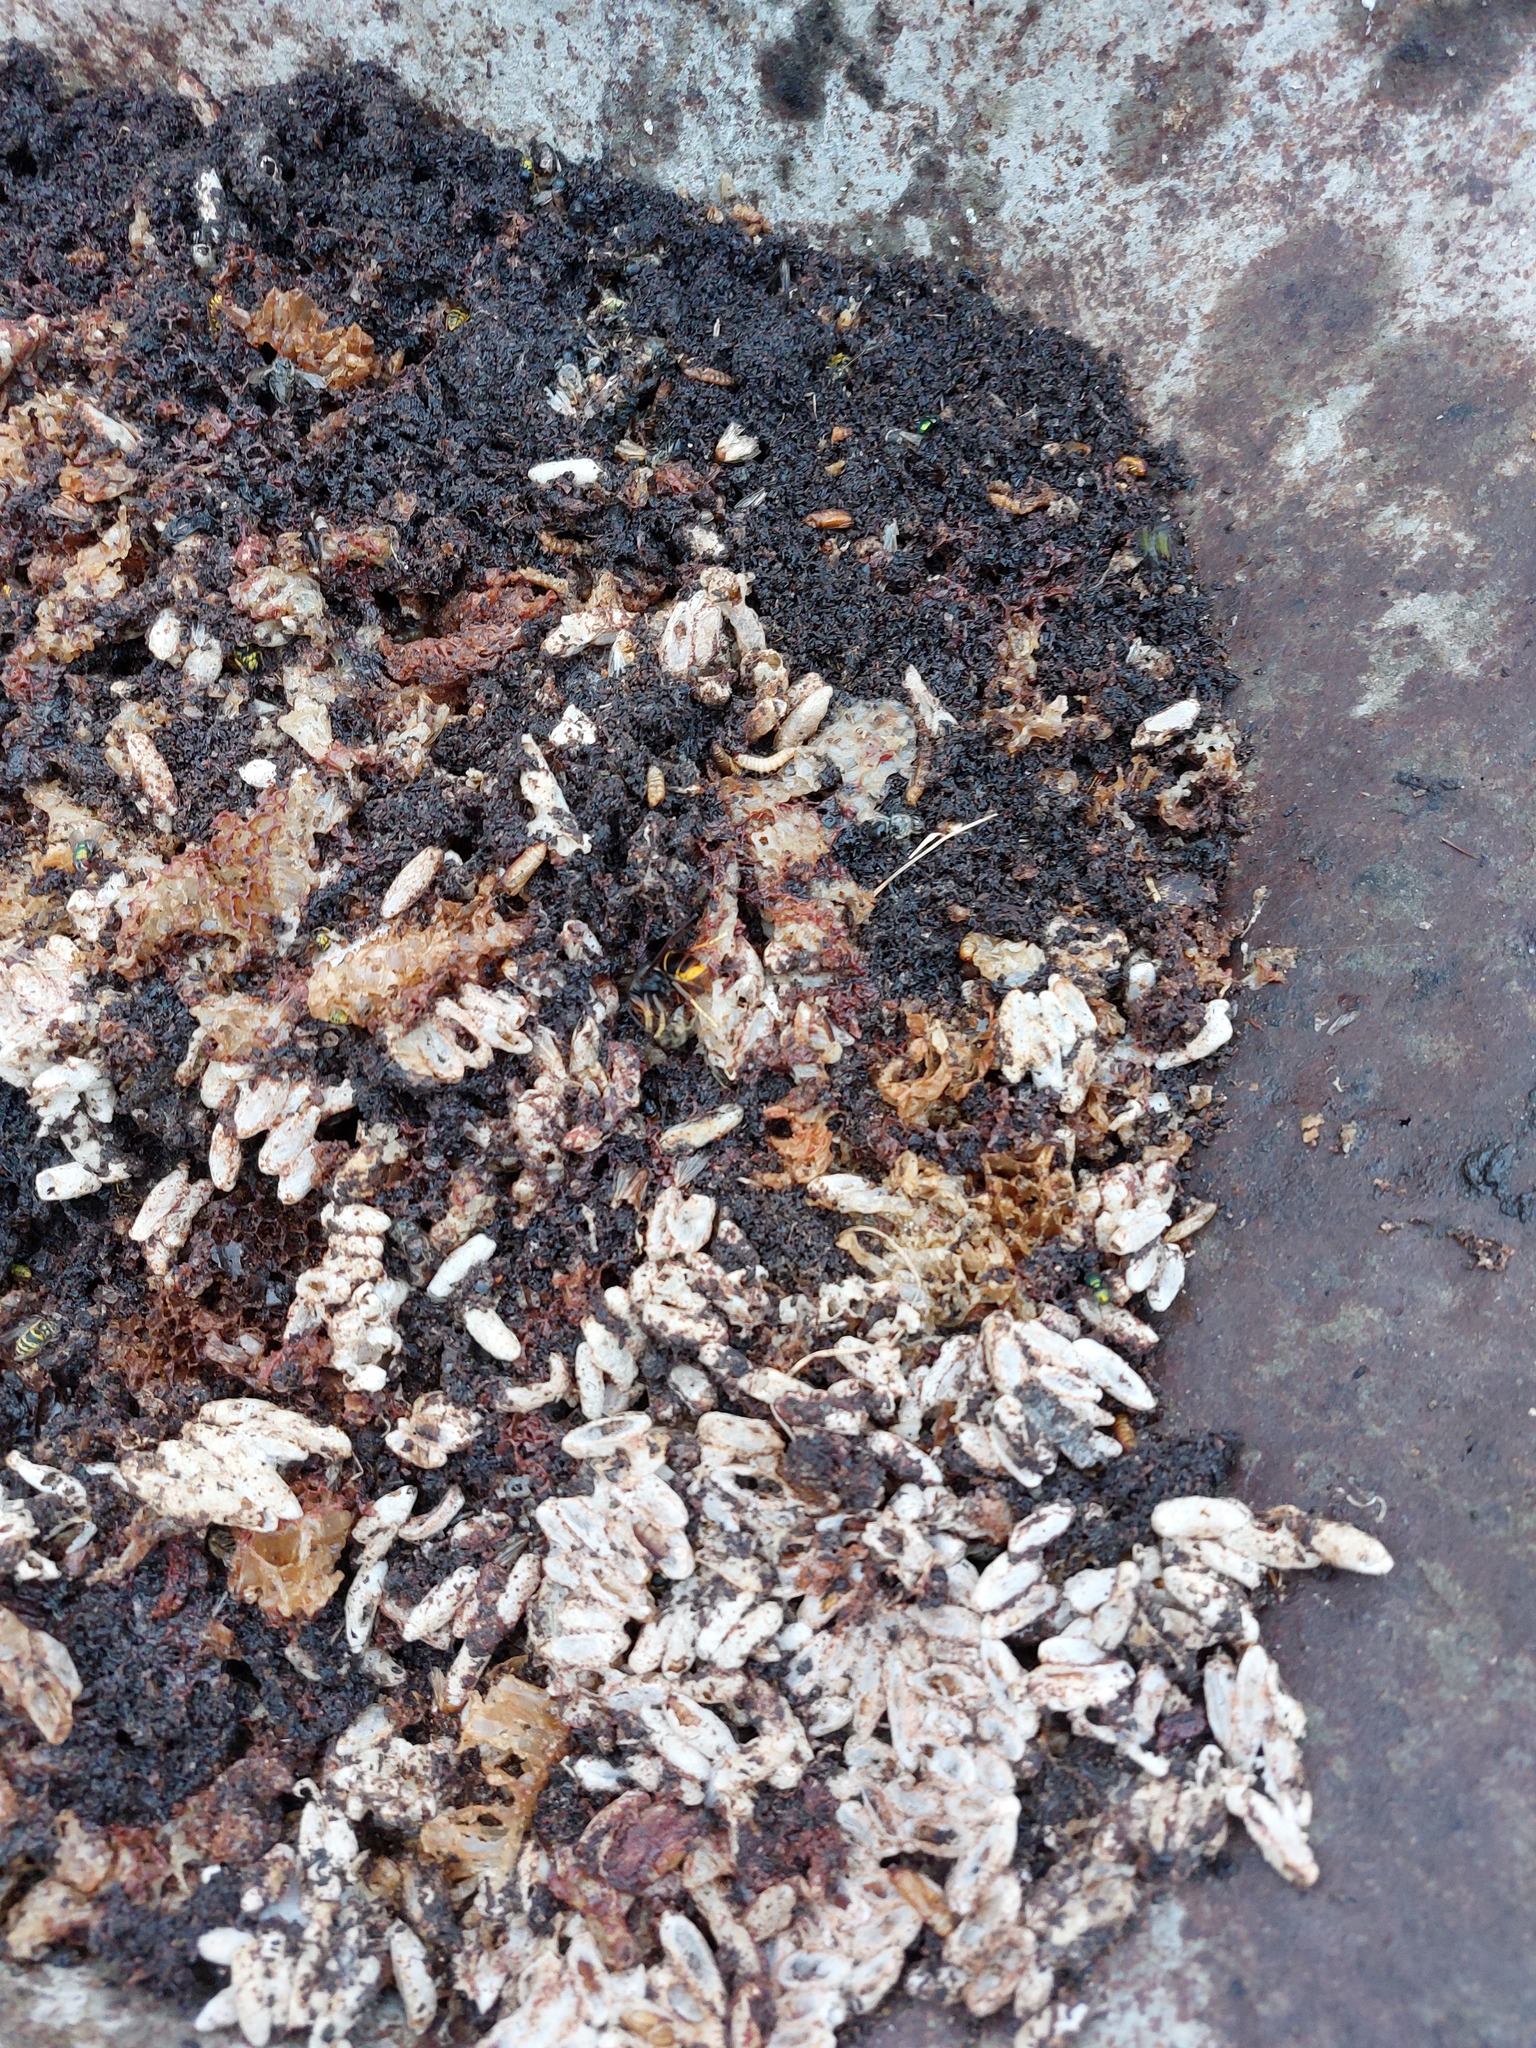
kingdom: Animalia
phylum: Arthropoda
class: Insecta
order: Hymenoptera
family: Vespidae
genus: Vespa
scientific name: Vespa velutina
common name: Asian hornet
